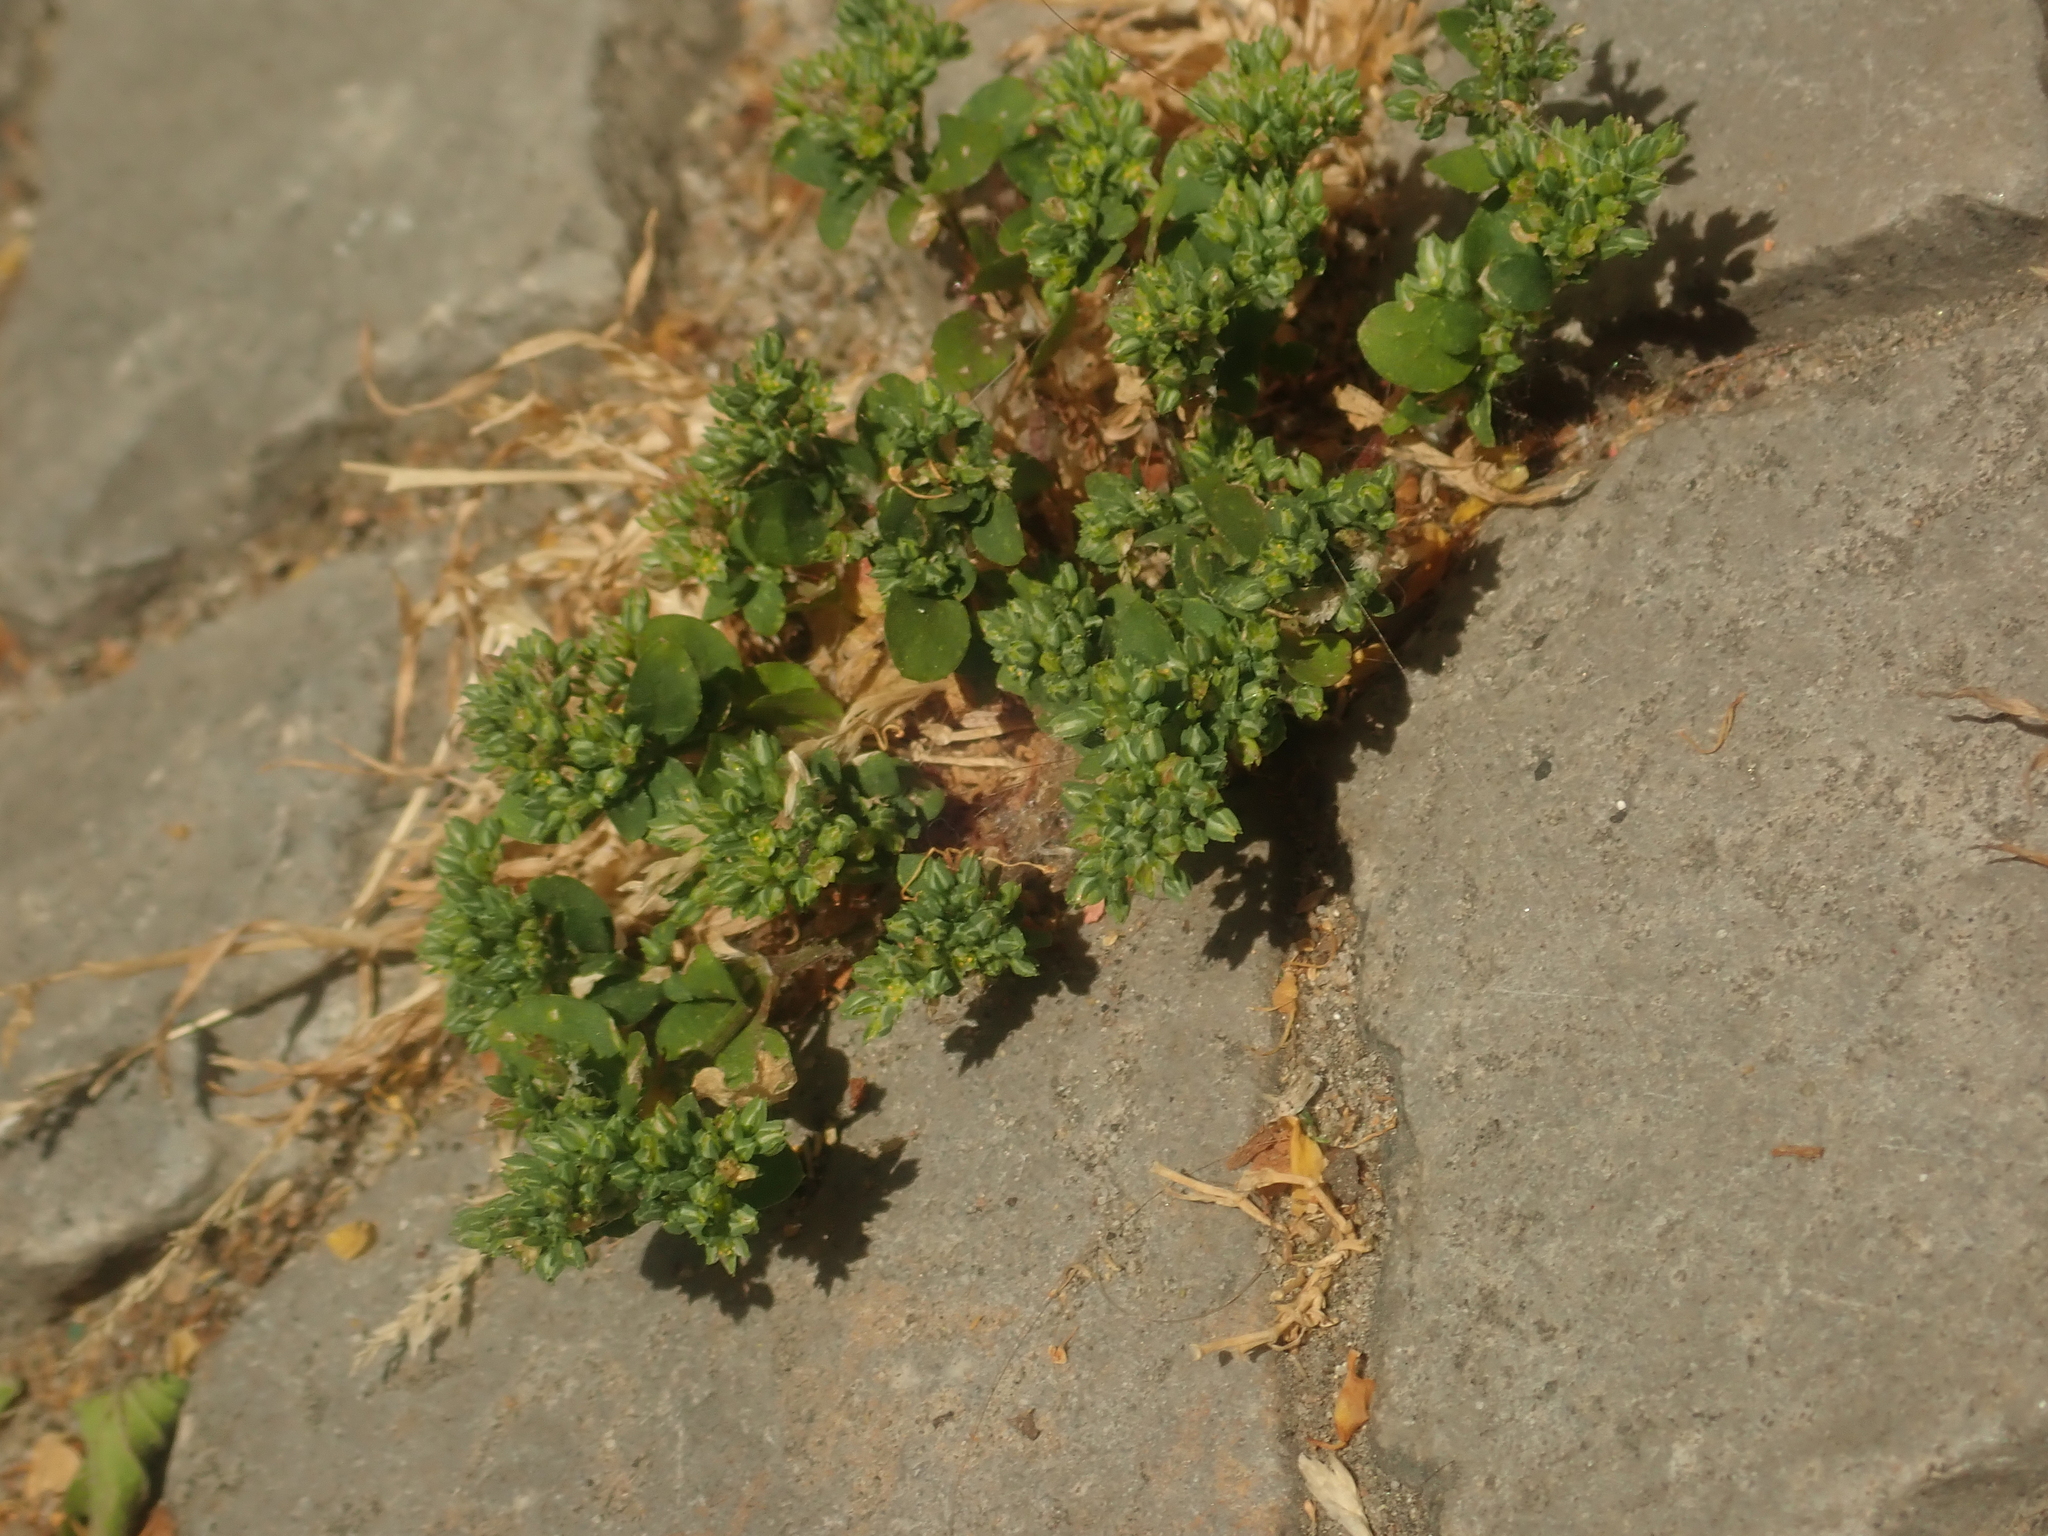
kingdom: Plantae
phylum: Tracheophyta
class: Magnoliopsida
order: Caryophyllales
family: Caryophyllaceae
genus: Polycarpon
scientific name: Polycarpon tetraphyllum
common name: Four-leaved all-seed
